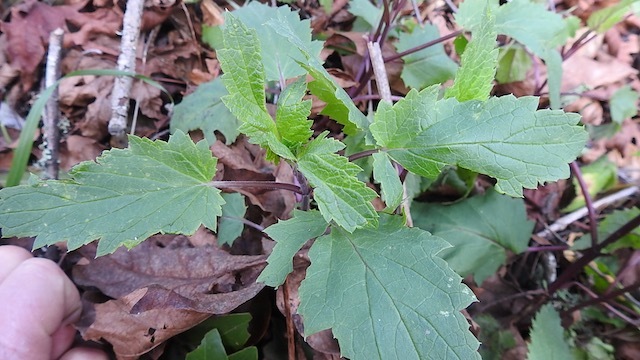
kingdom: Plantae
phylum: Tracheophyta
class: Magnoliopsida
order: Lamiales
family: Scrophulariaceae
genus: Scrophularia
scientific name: Scrophularia californica
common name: California figwort
